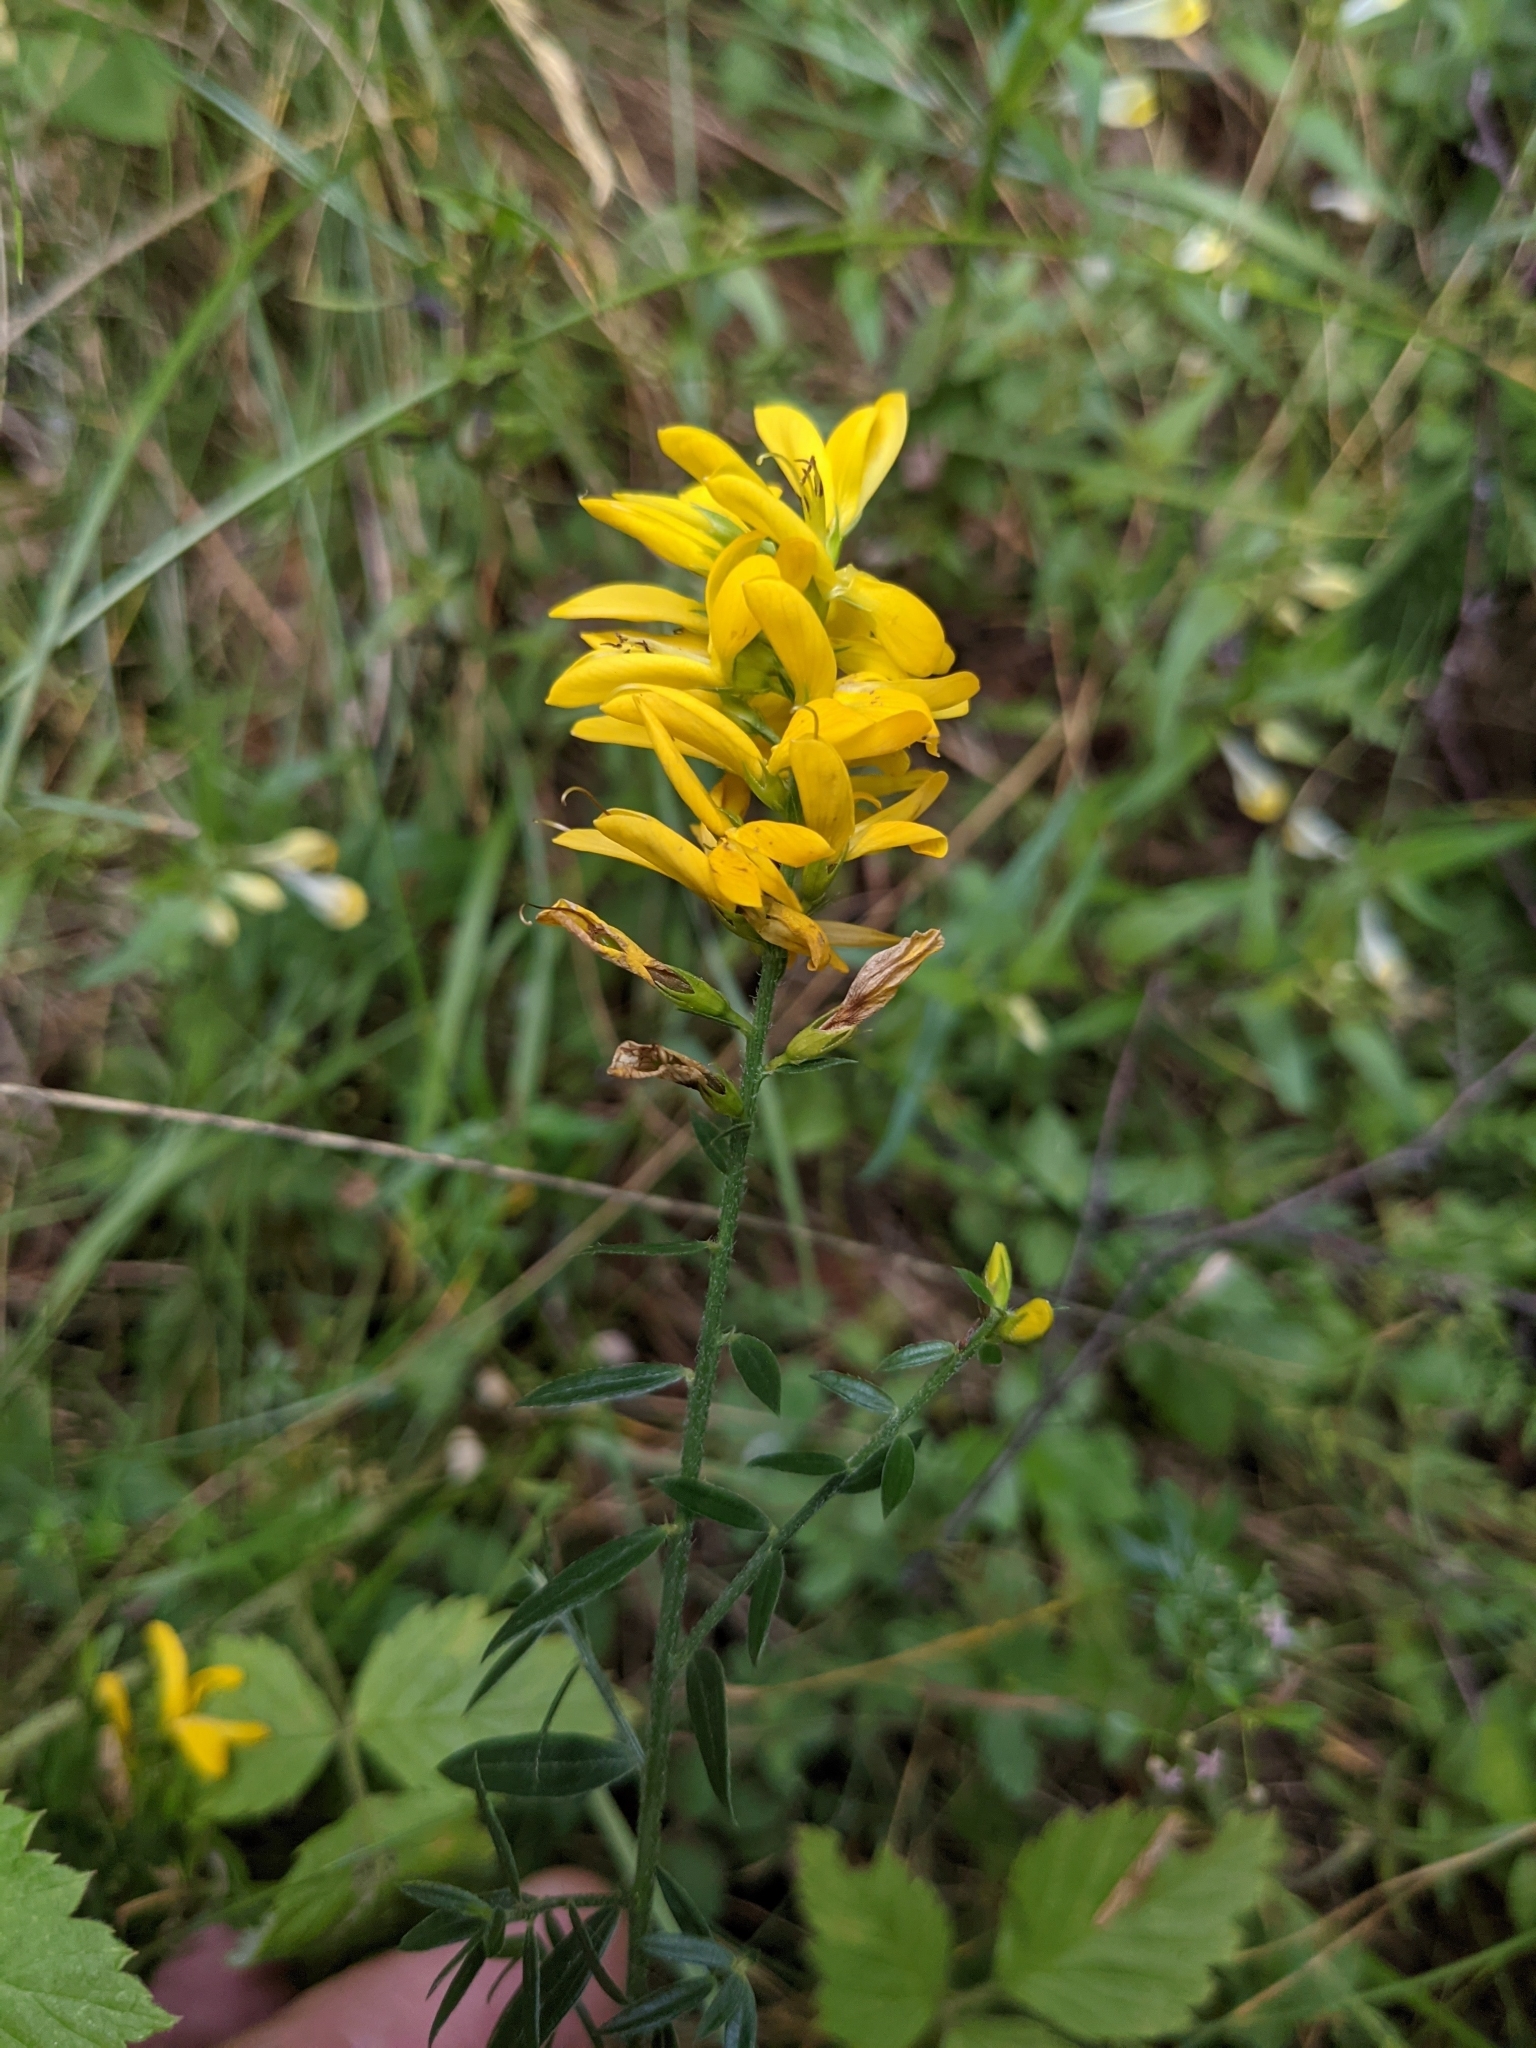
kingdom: Plantae
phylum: Tracheophyta
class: Magnoliopsida
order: Fabales
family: Fabaceae
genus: Genista
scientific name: Genista tinctoria
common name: Dyer's greenweed
